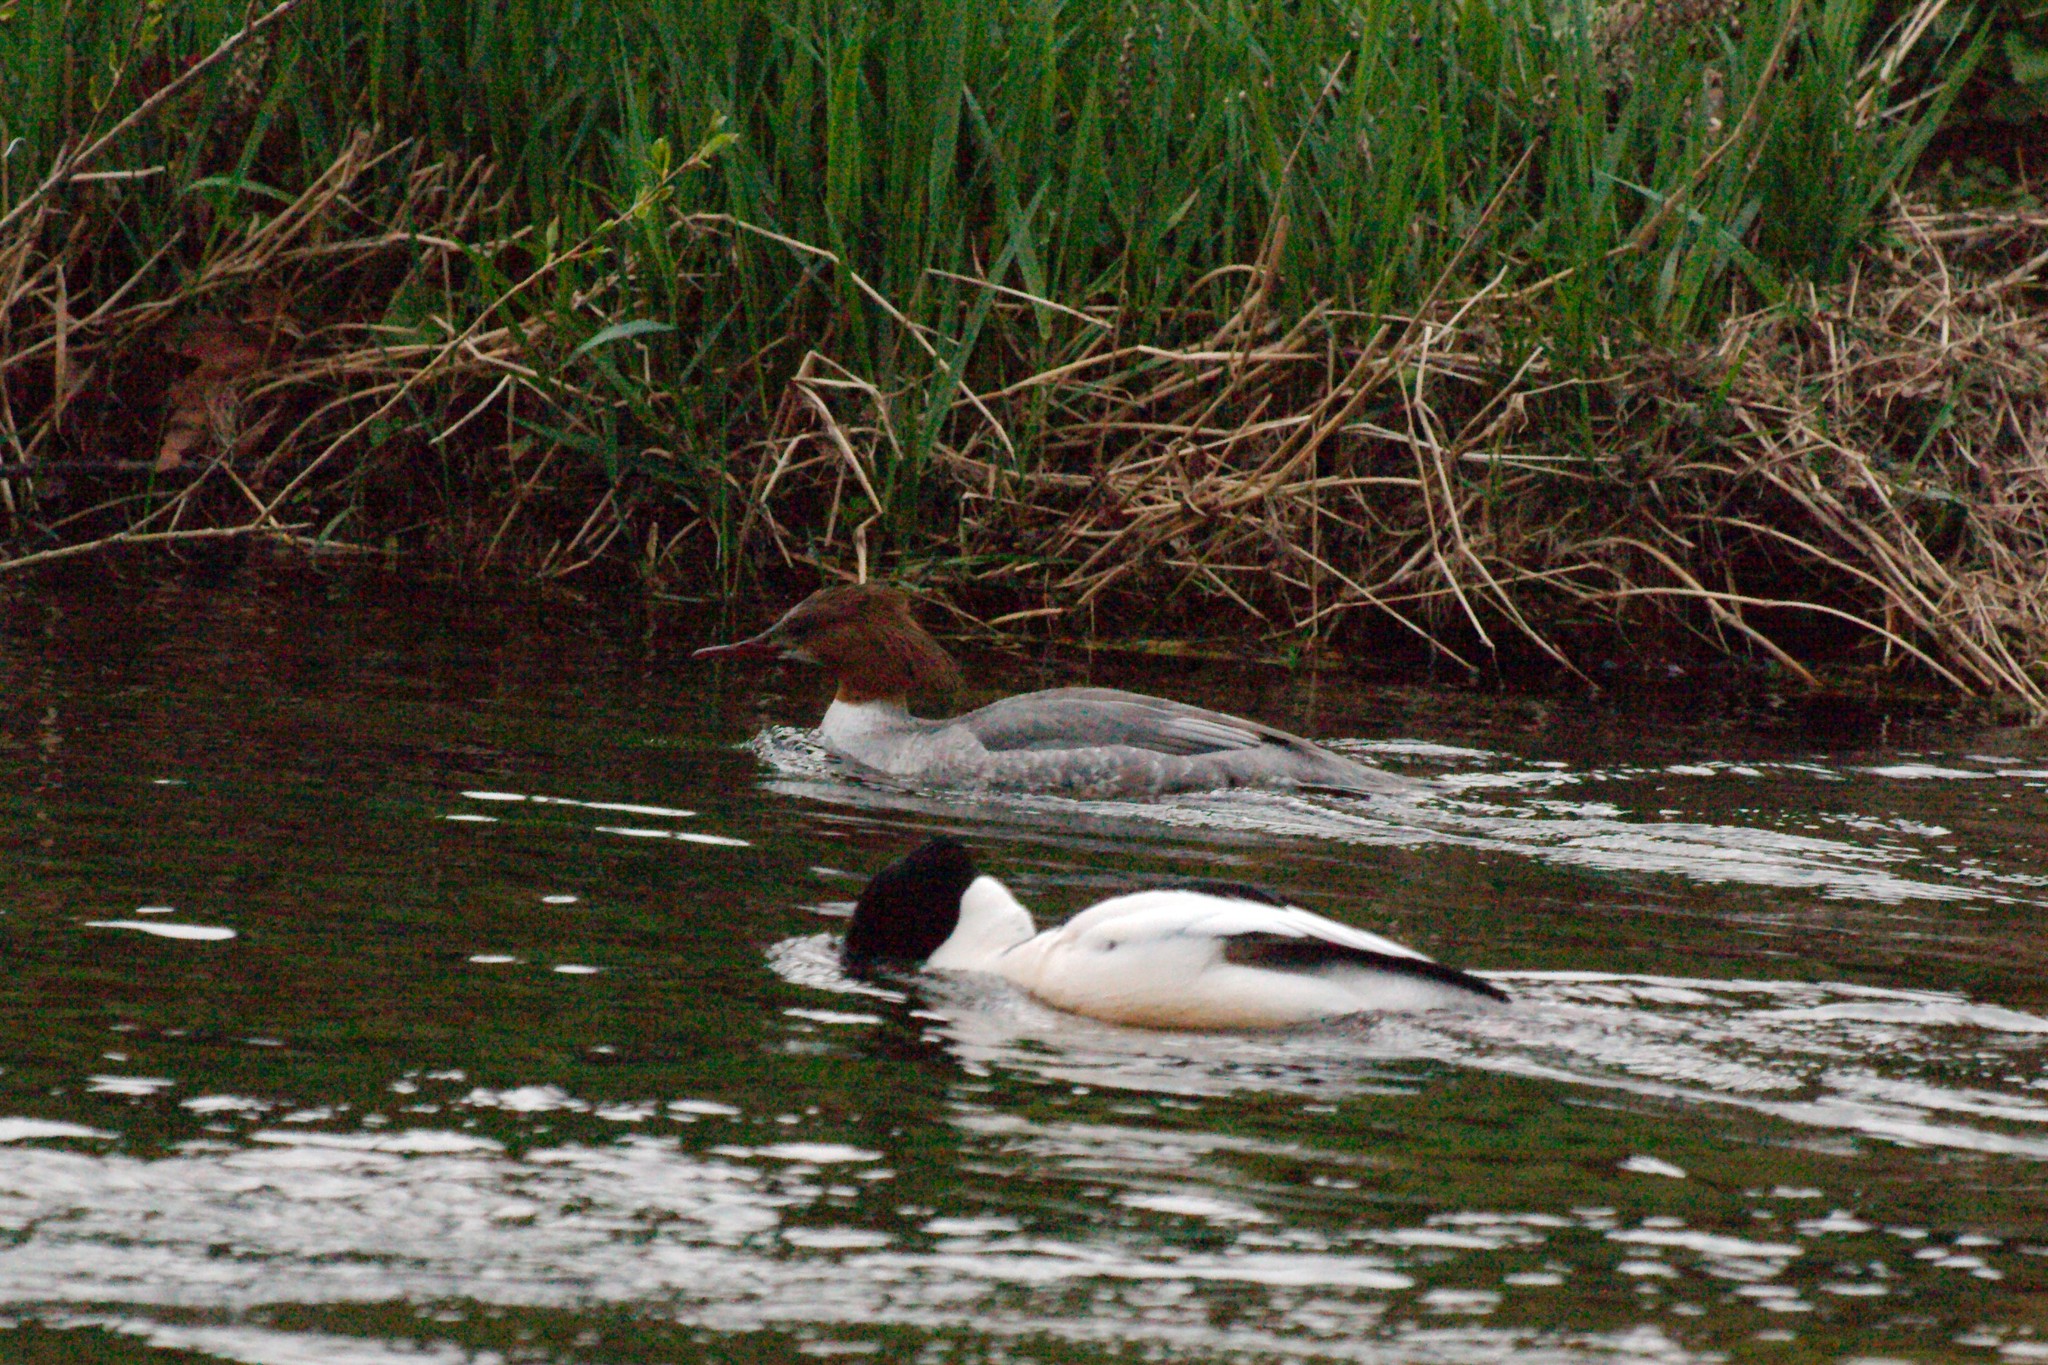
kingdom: Animalia
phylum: Chordata
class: Aves
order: Anseriformes
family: Anatidae
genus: Mergus
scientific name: Mergus merganser
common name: Common merganser
